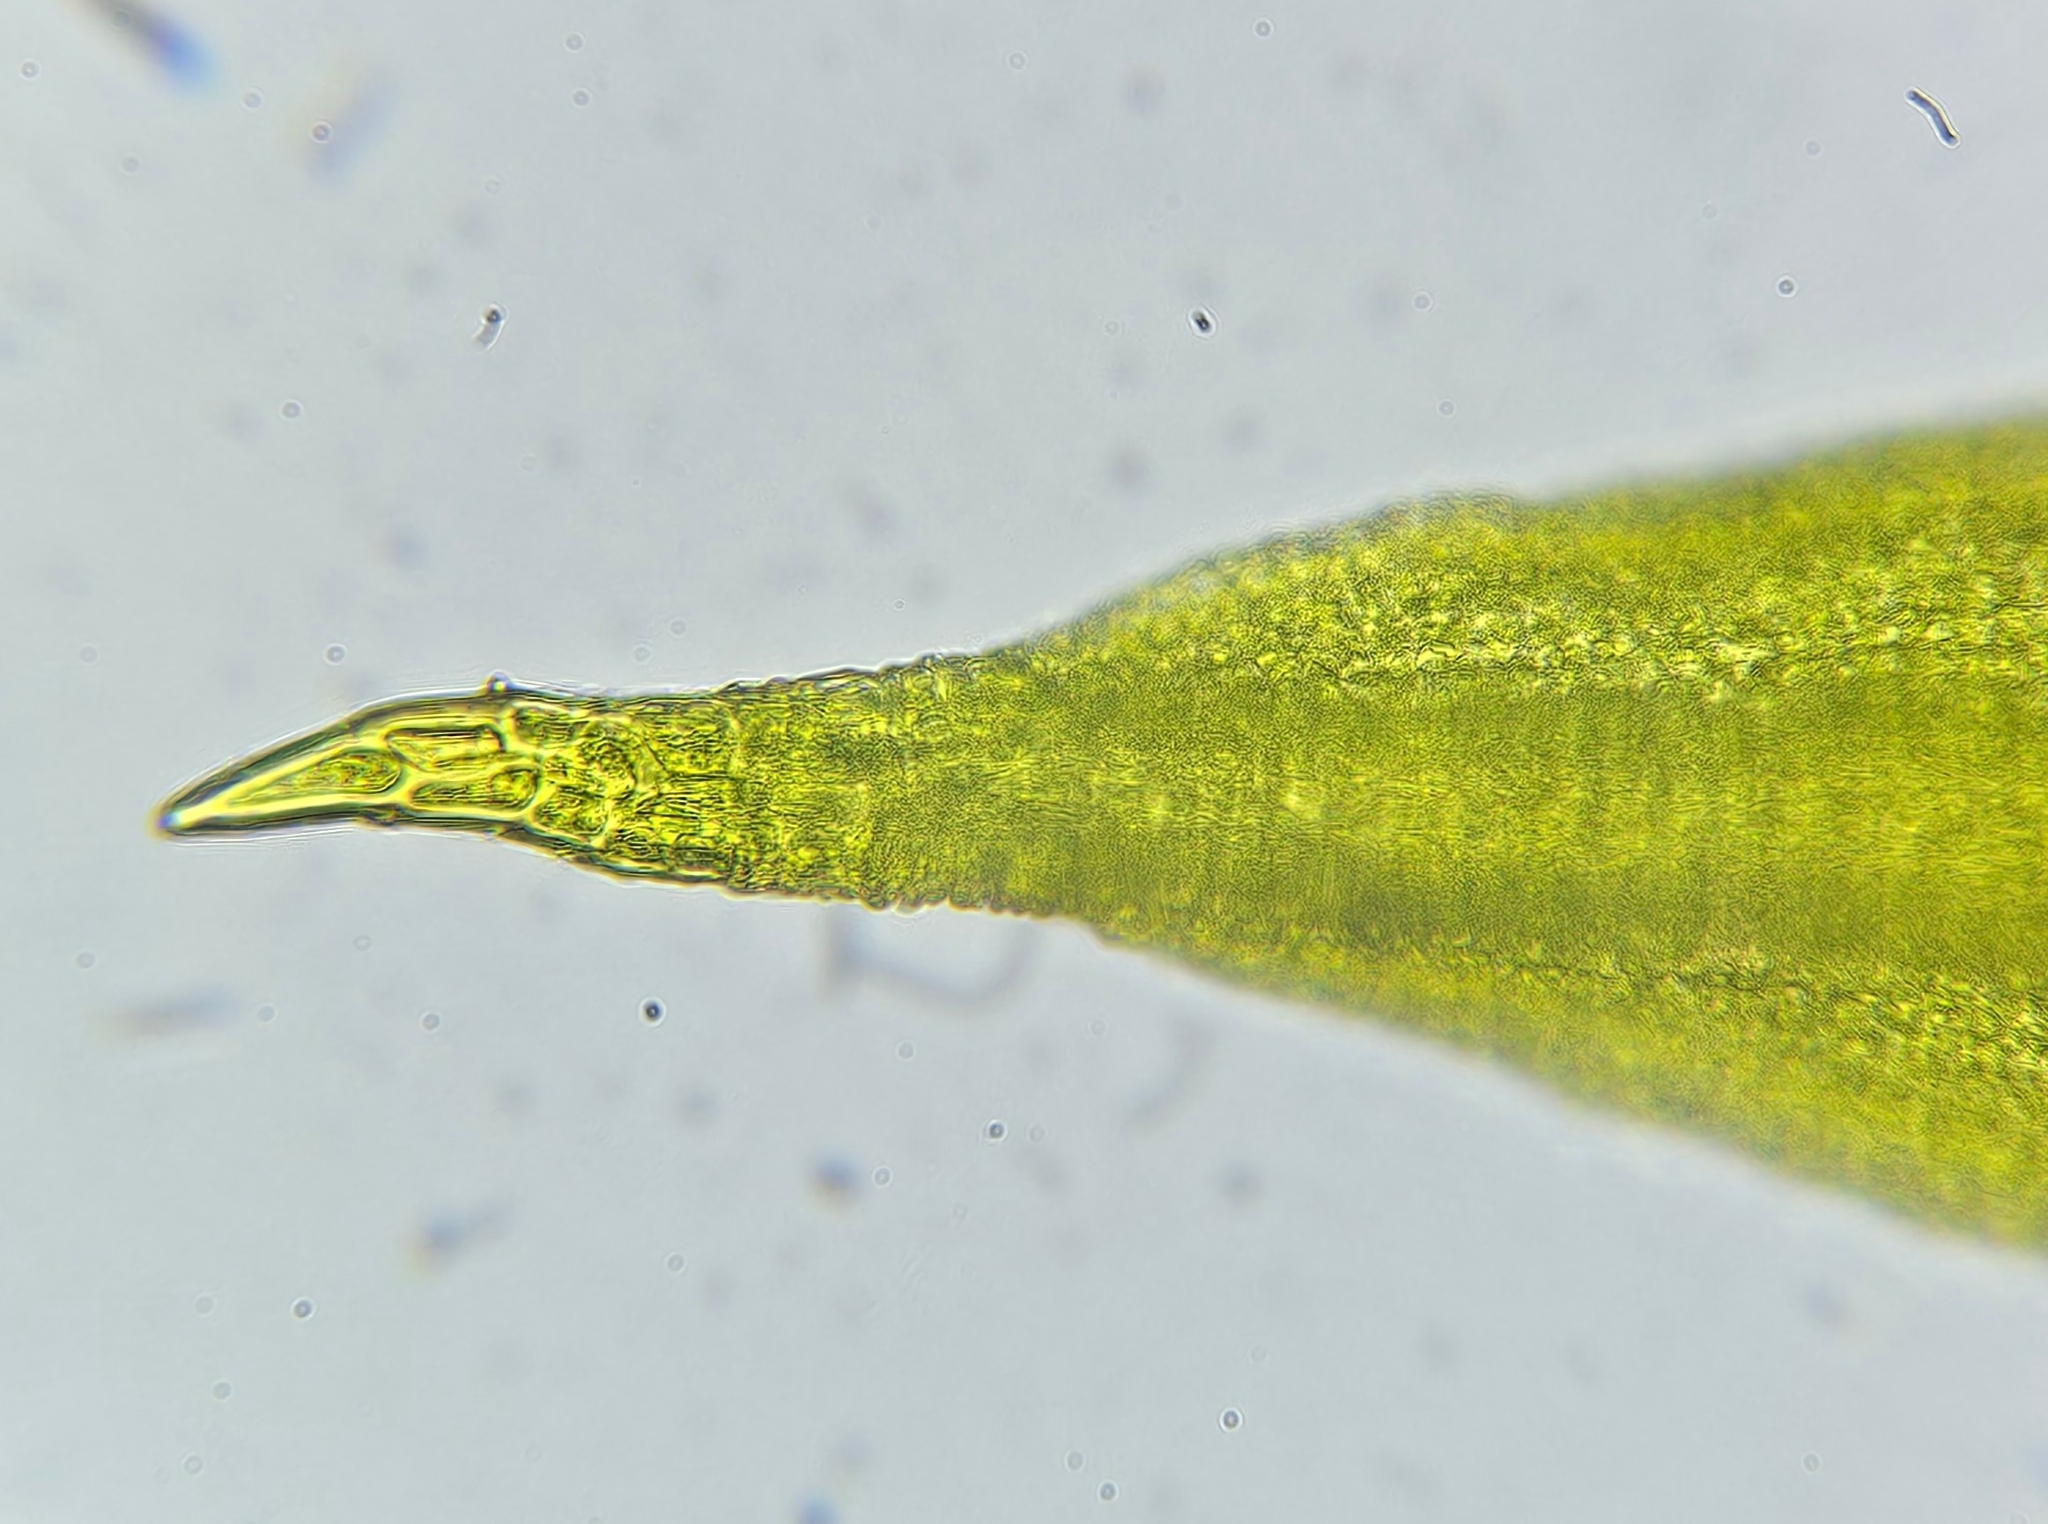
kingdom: Plantae
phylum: Bryophyta
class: Bryopsida
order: Pottiales
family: Pottiaceae
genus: Trichostomum
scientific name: Trichostomum brachydontium
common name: Variable crisp-moss
